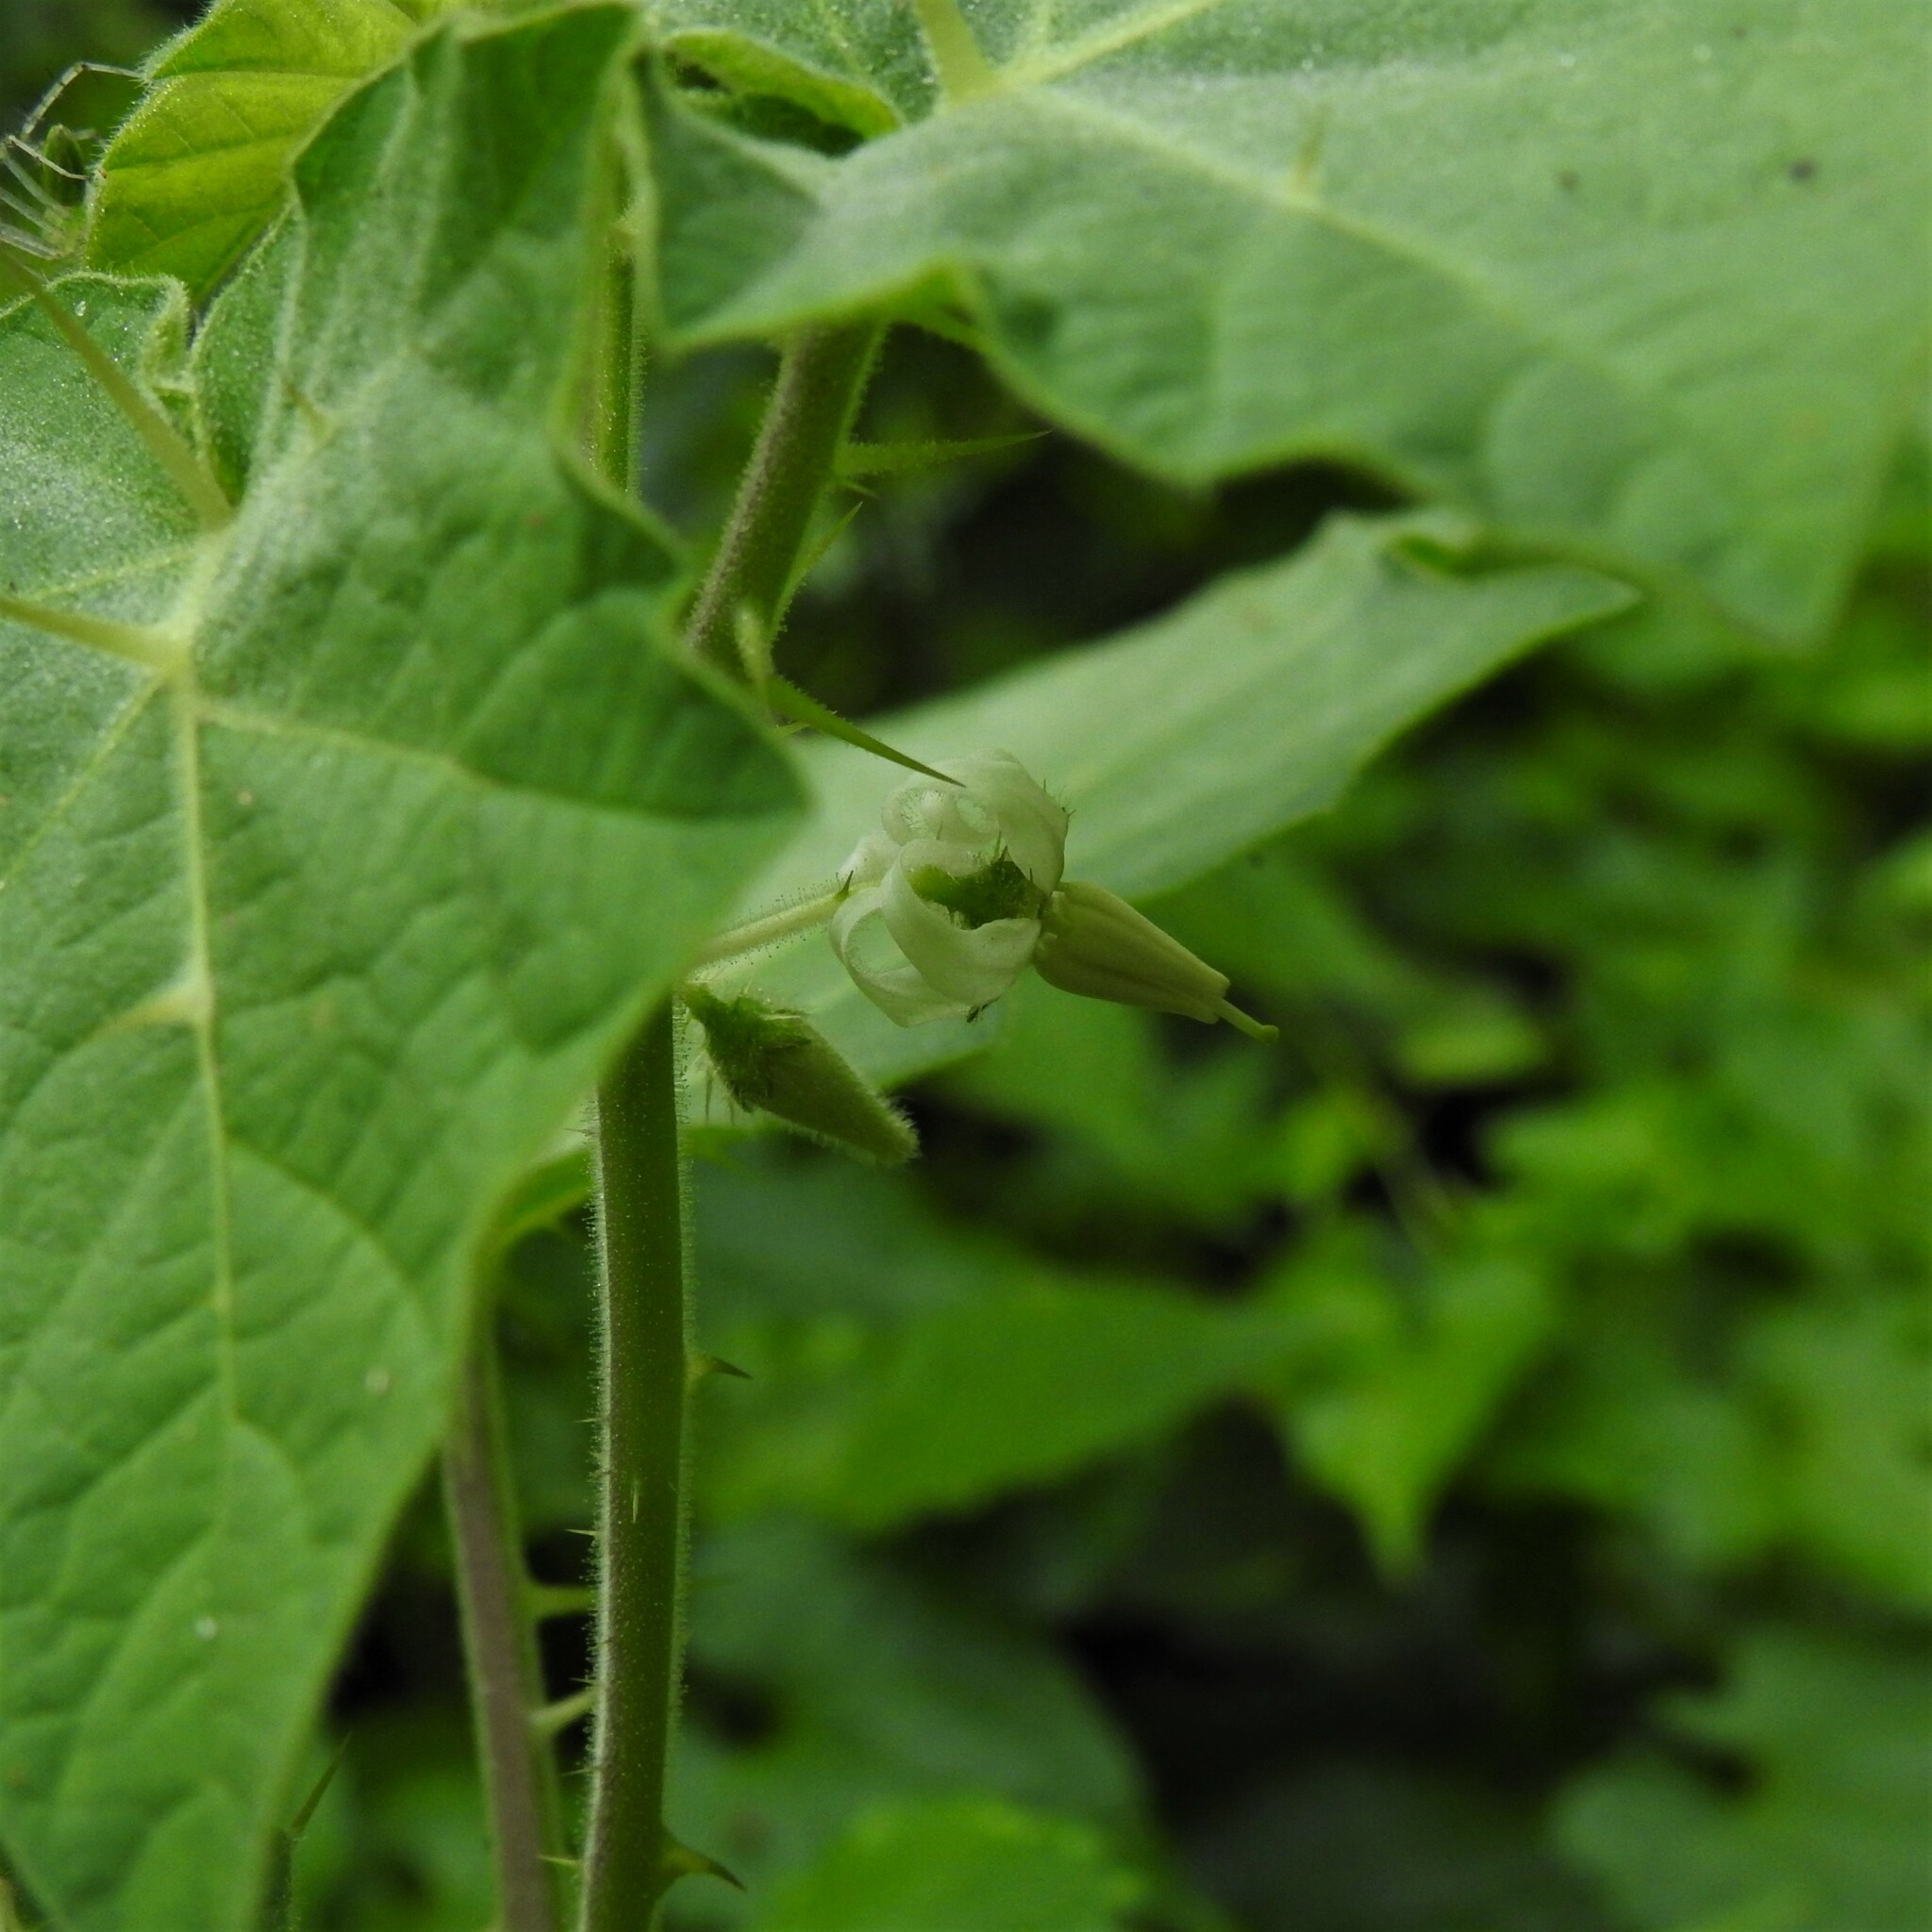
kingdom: Plantae
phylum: Tracheophyta
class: Magnoliopsida
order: Solanales
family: Solanaceae
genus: Solanum
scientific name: Solanum viarum
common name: Tropical soda apple
